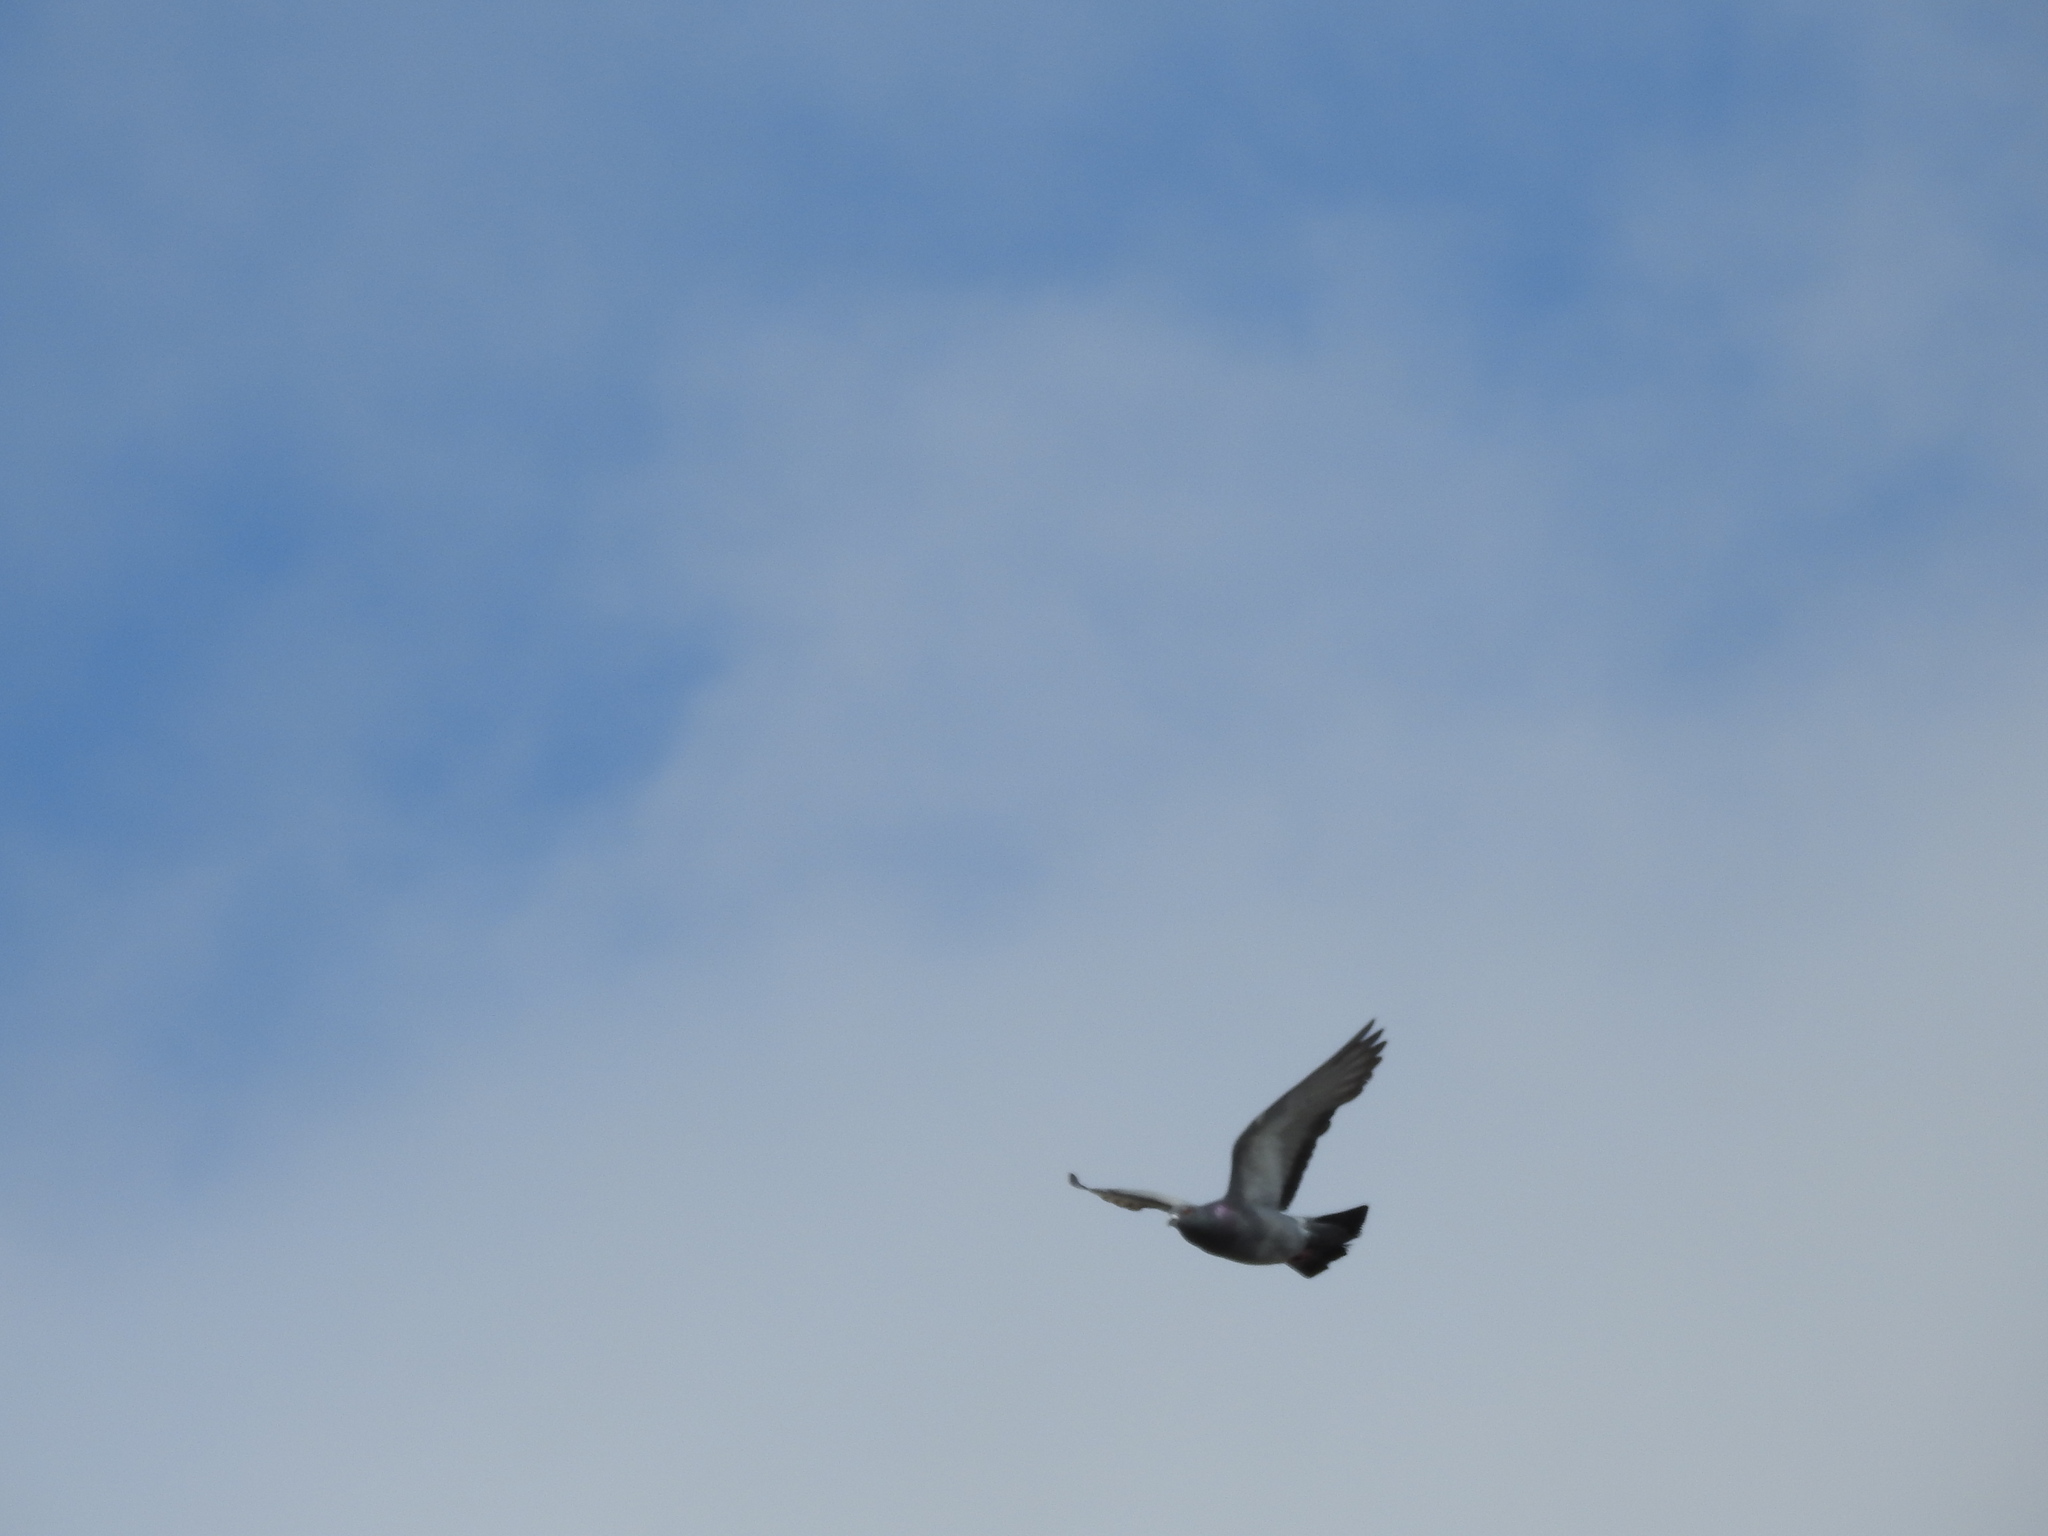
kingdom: Animalia
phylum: Chordata
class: Aves
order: Columbiformes
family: Columbidae
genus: Columba
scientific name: Columba livia
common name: Rock pigeon
